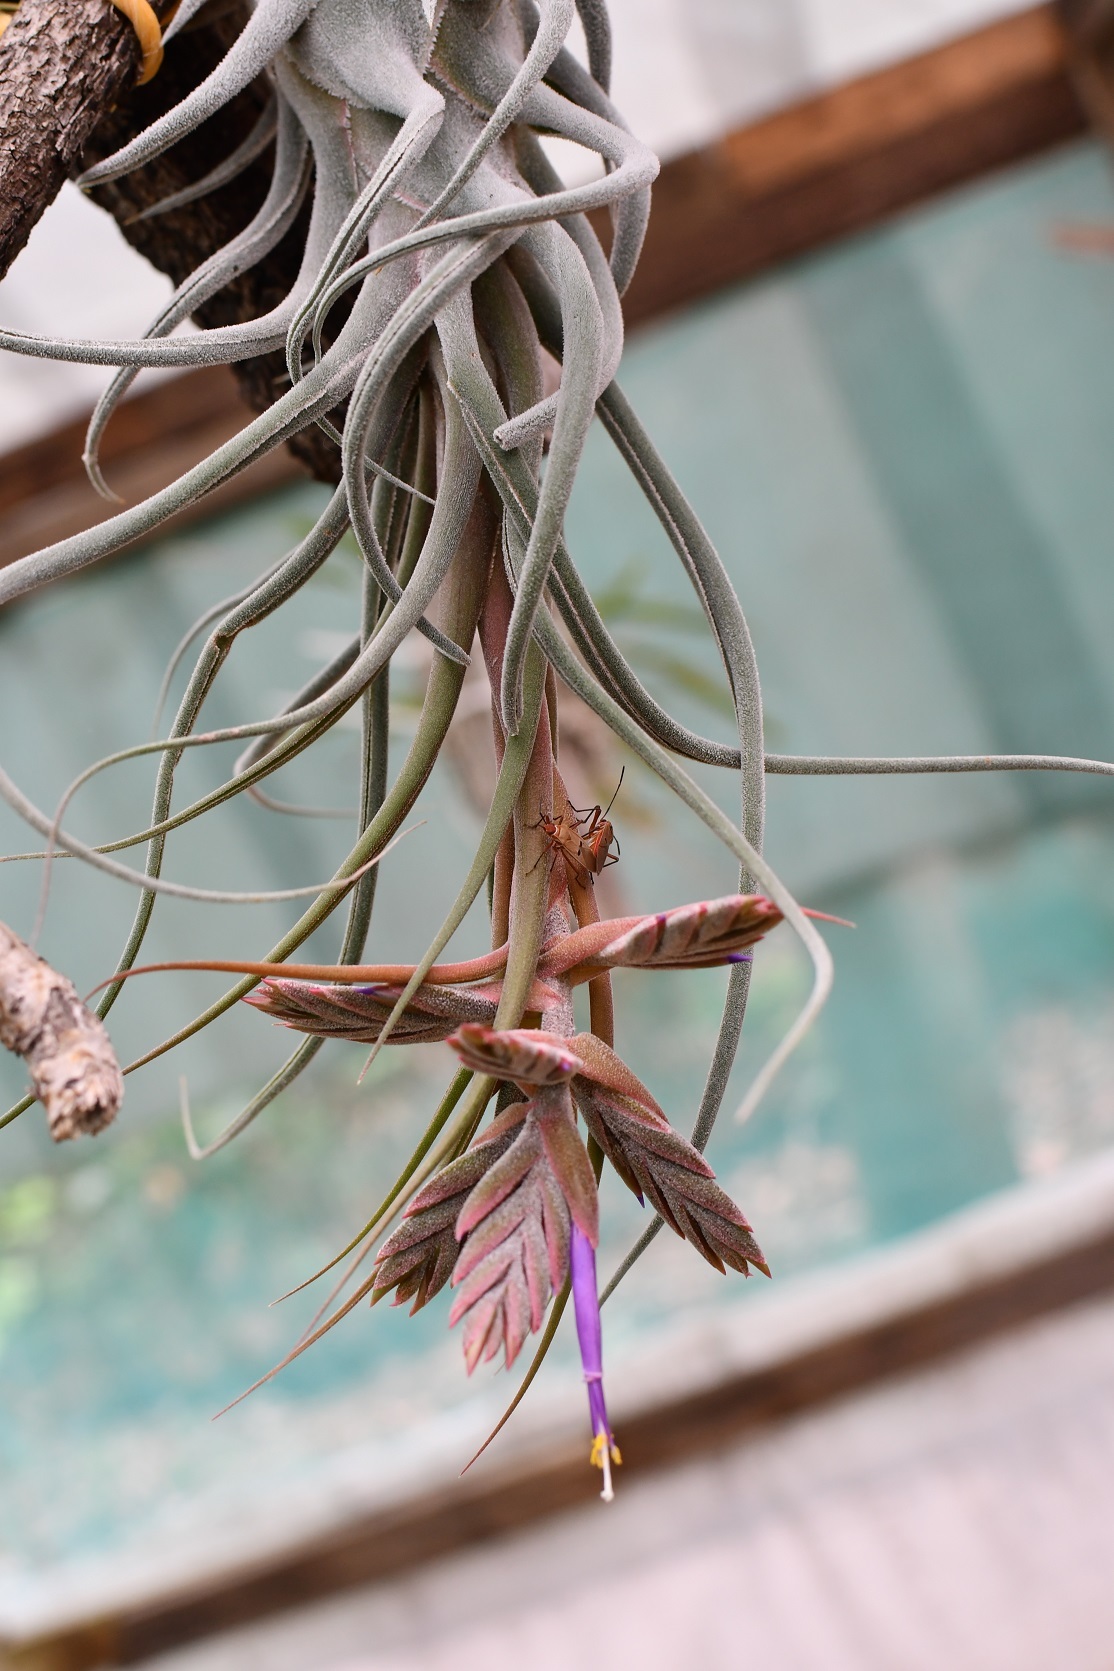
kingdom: Plantae
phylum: Tracheophyta
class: Liliopsida
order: Poales
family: Bromeliaceae
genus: Tillandsia
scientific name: Tillandsia seleriana
